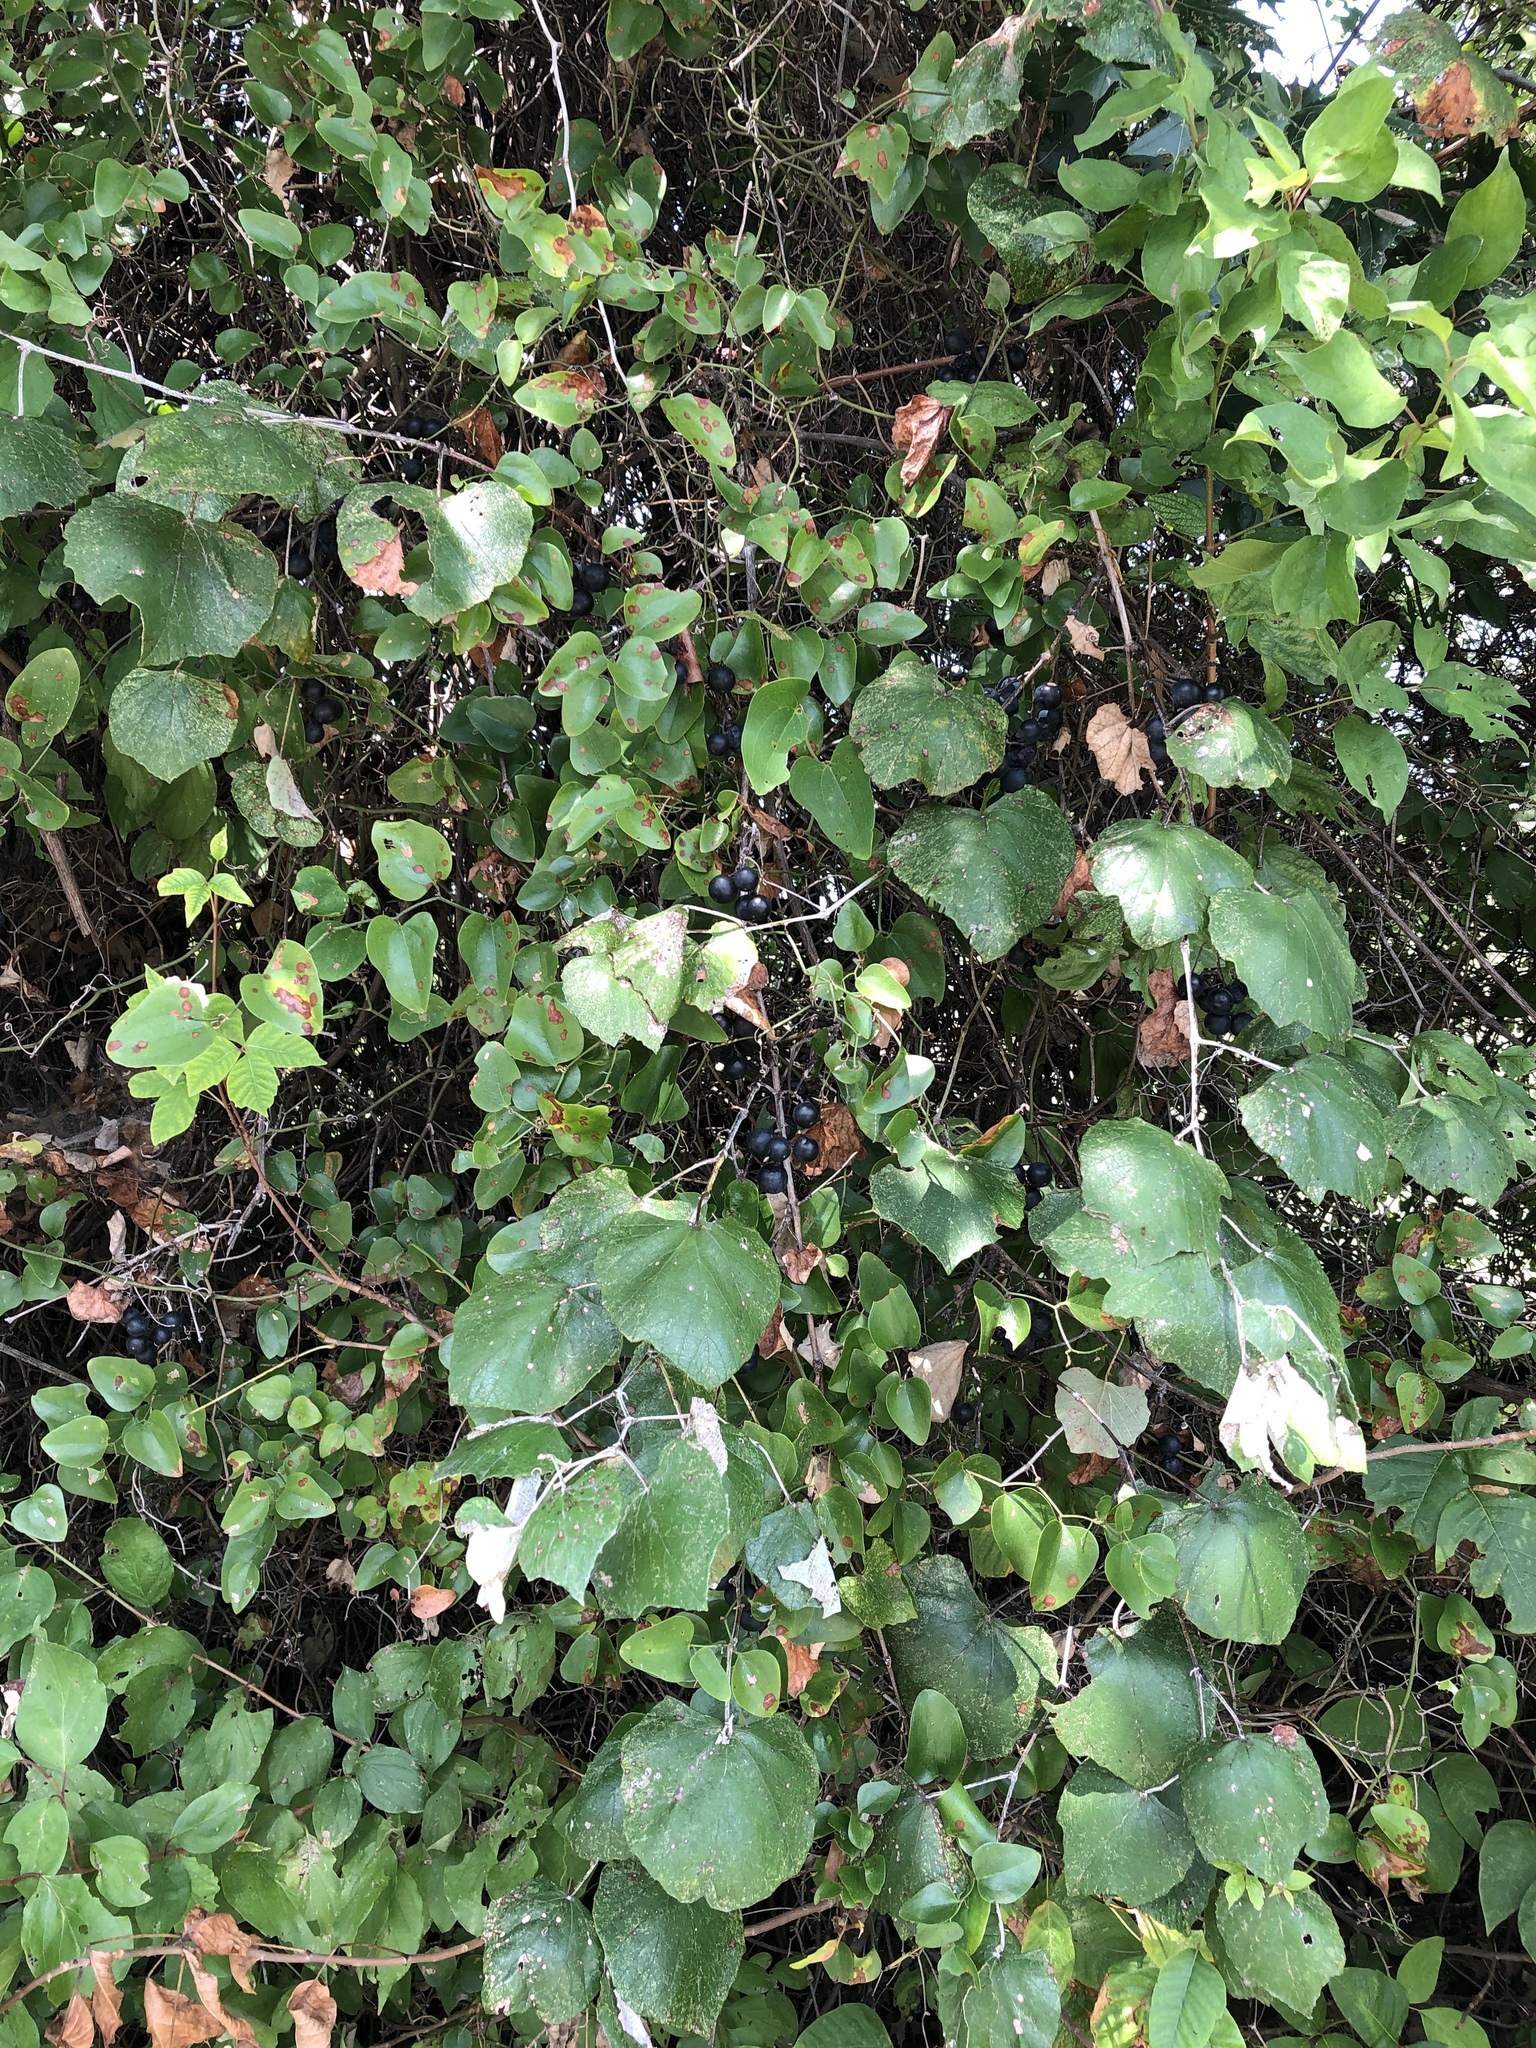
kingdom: Plantae
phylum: Tracheophyta
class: Magnoliopsida
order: Vitales
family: Vitaceae
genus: Vitis
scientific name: Vitis mustangensis
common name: Mustang grape
